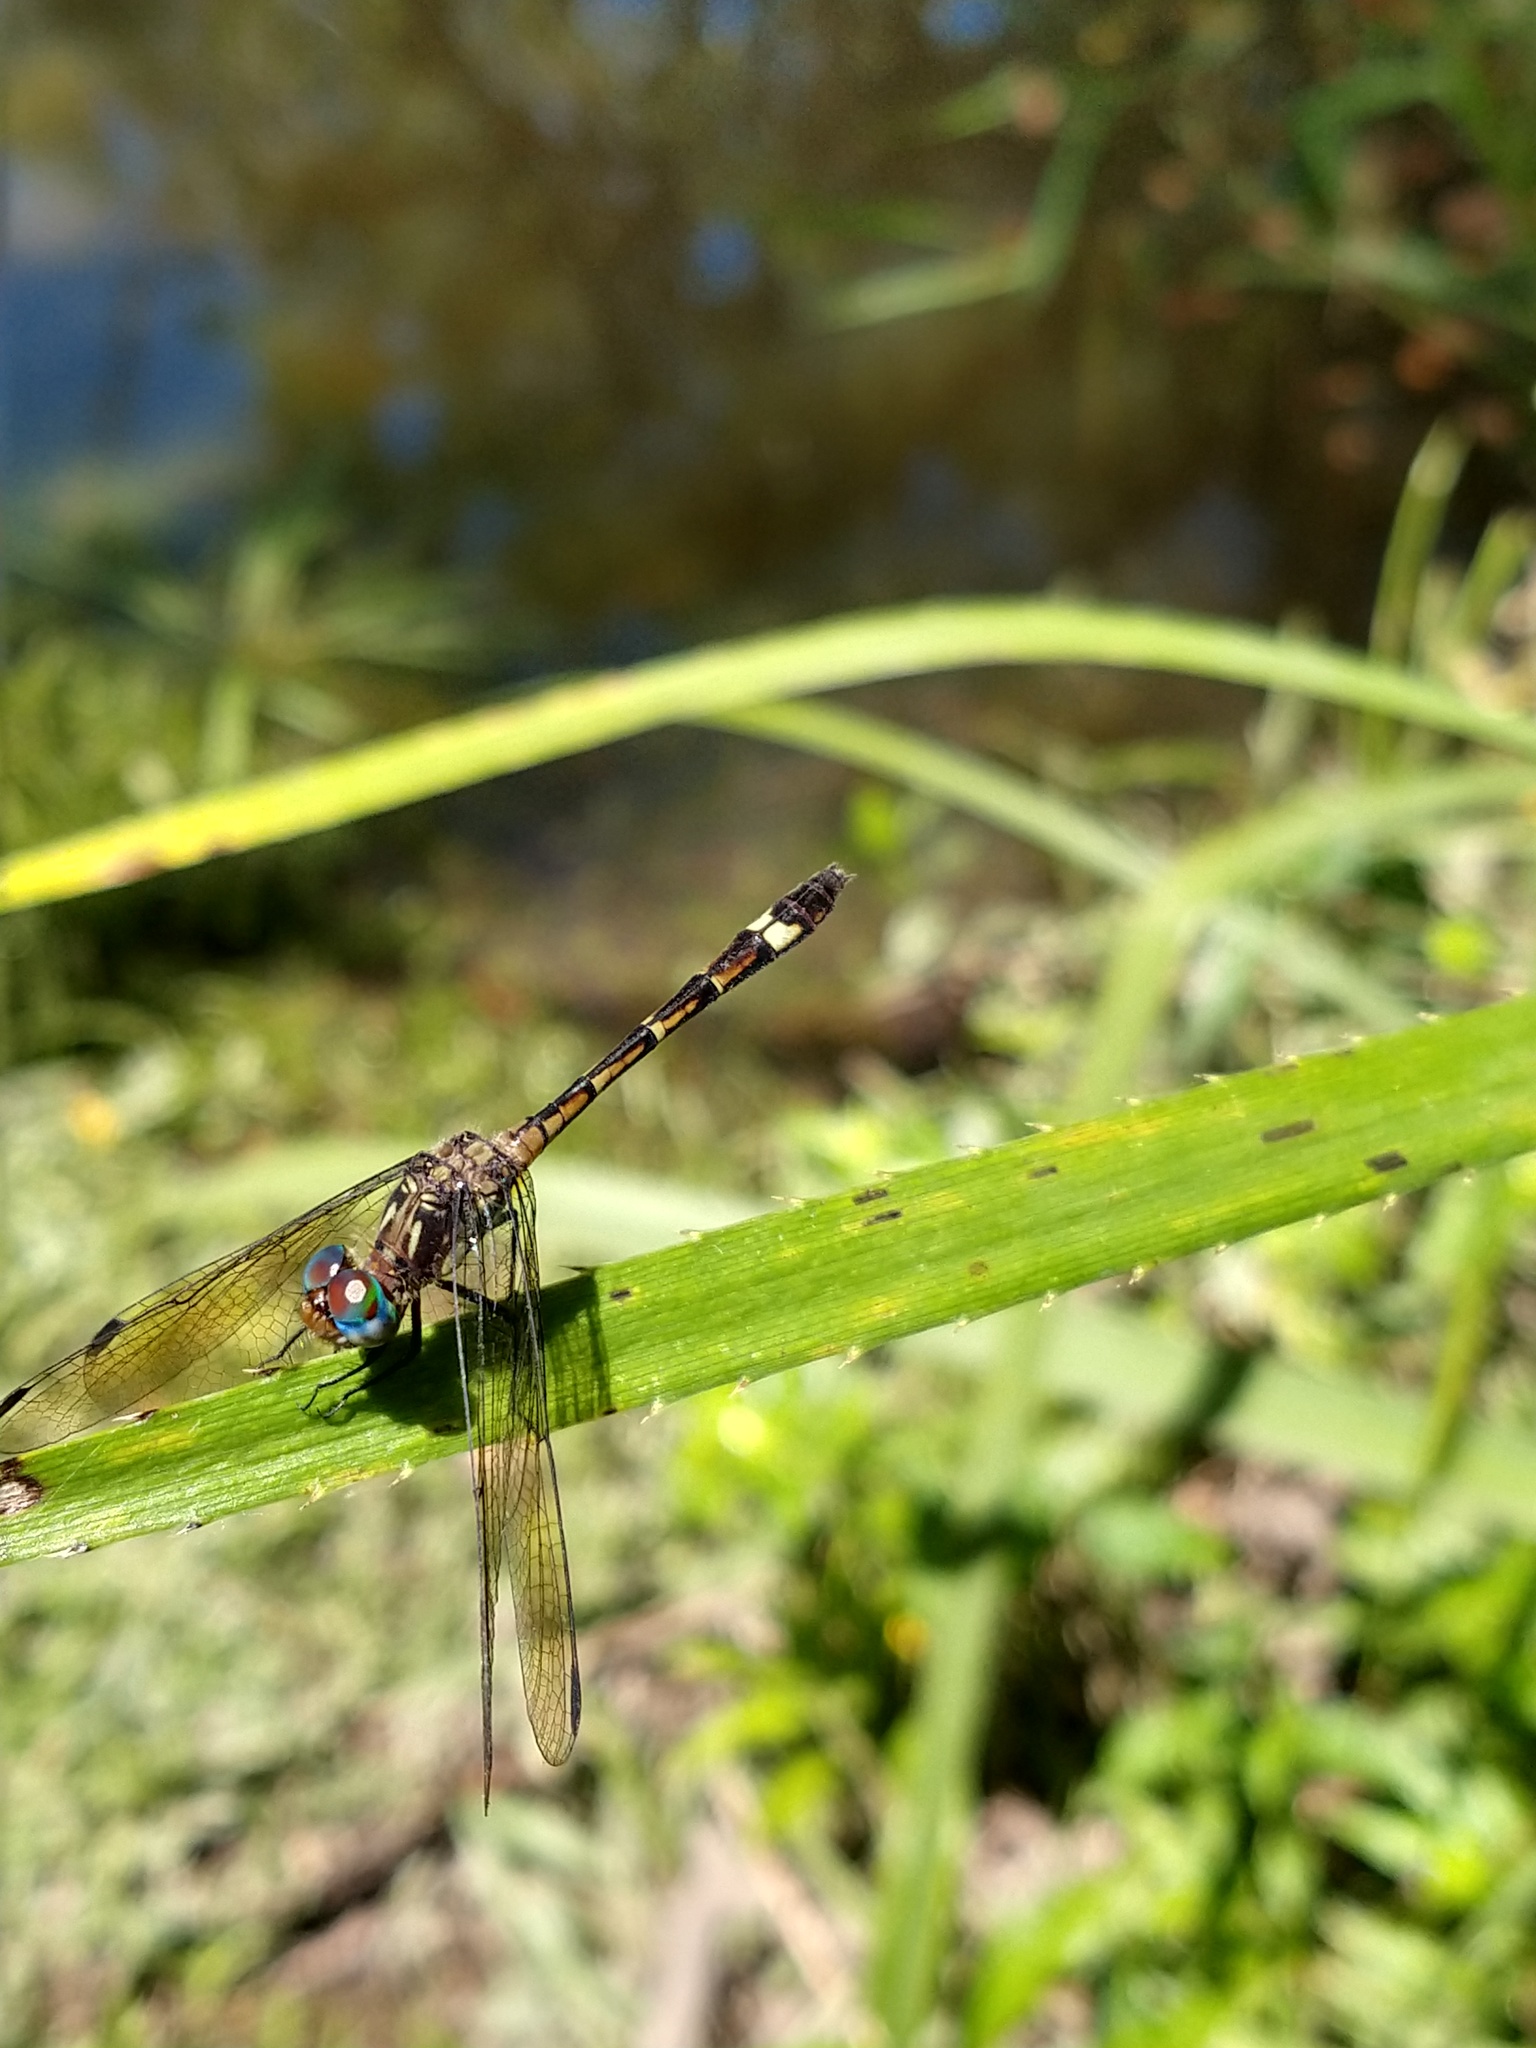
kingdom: Animalia
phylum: Arthropoda
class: Insecta
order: Odonata
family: Libellulidae
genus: Micrathyria
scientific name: Micrathyria hypodidyma
